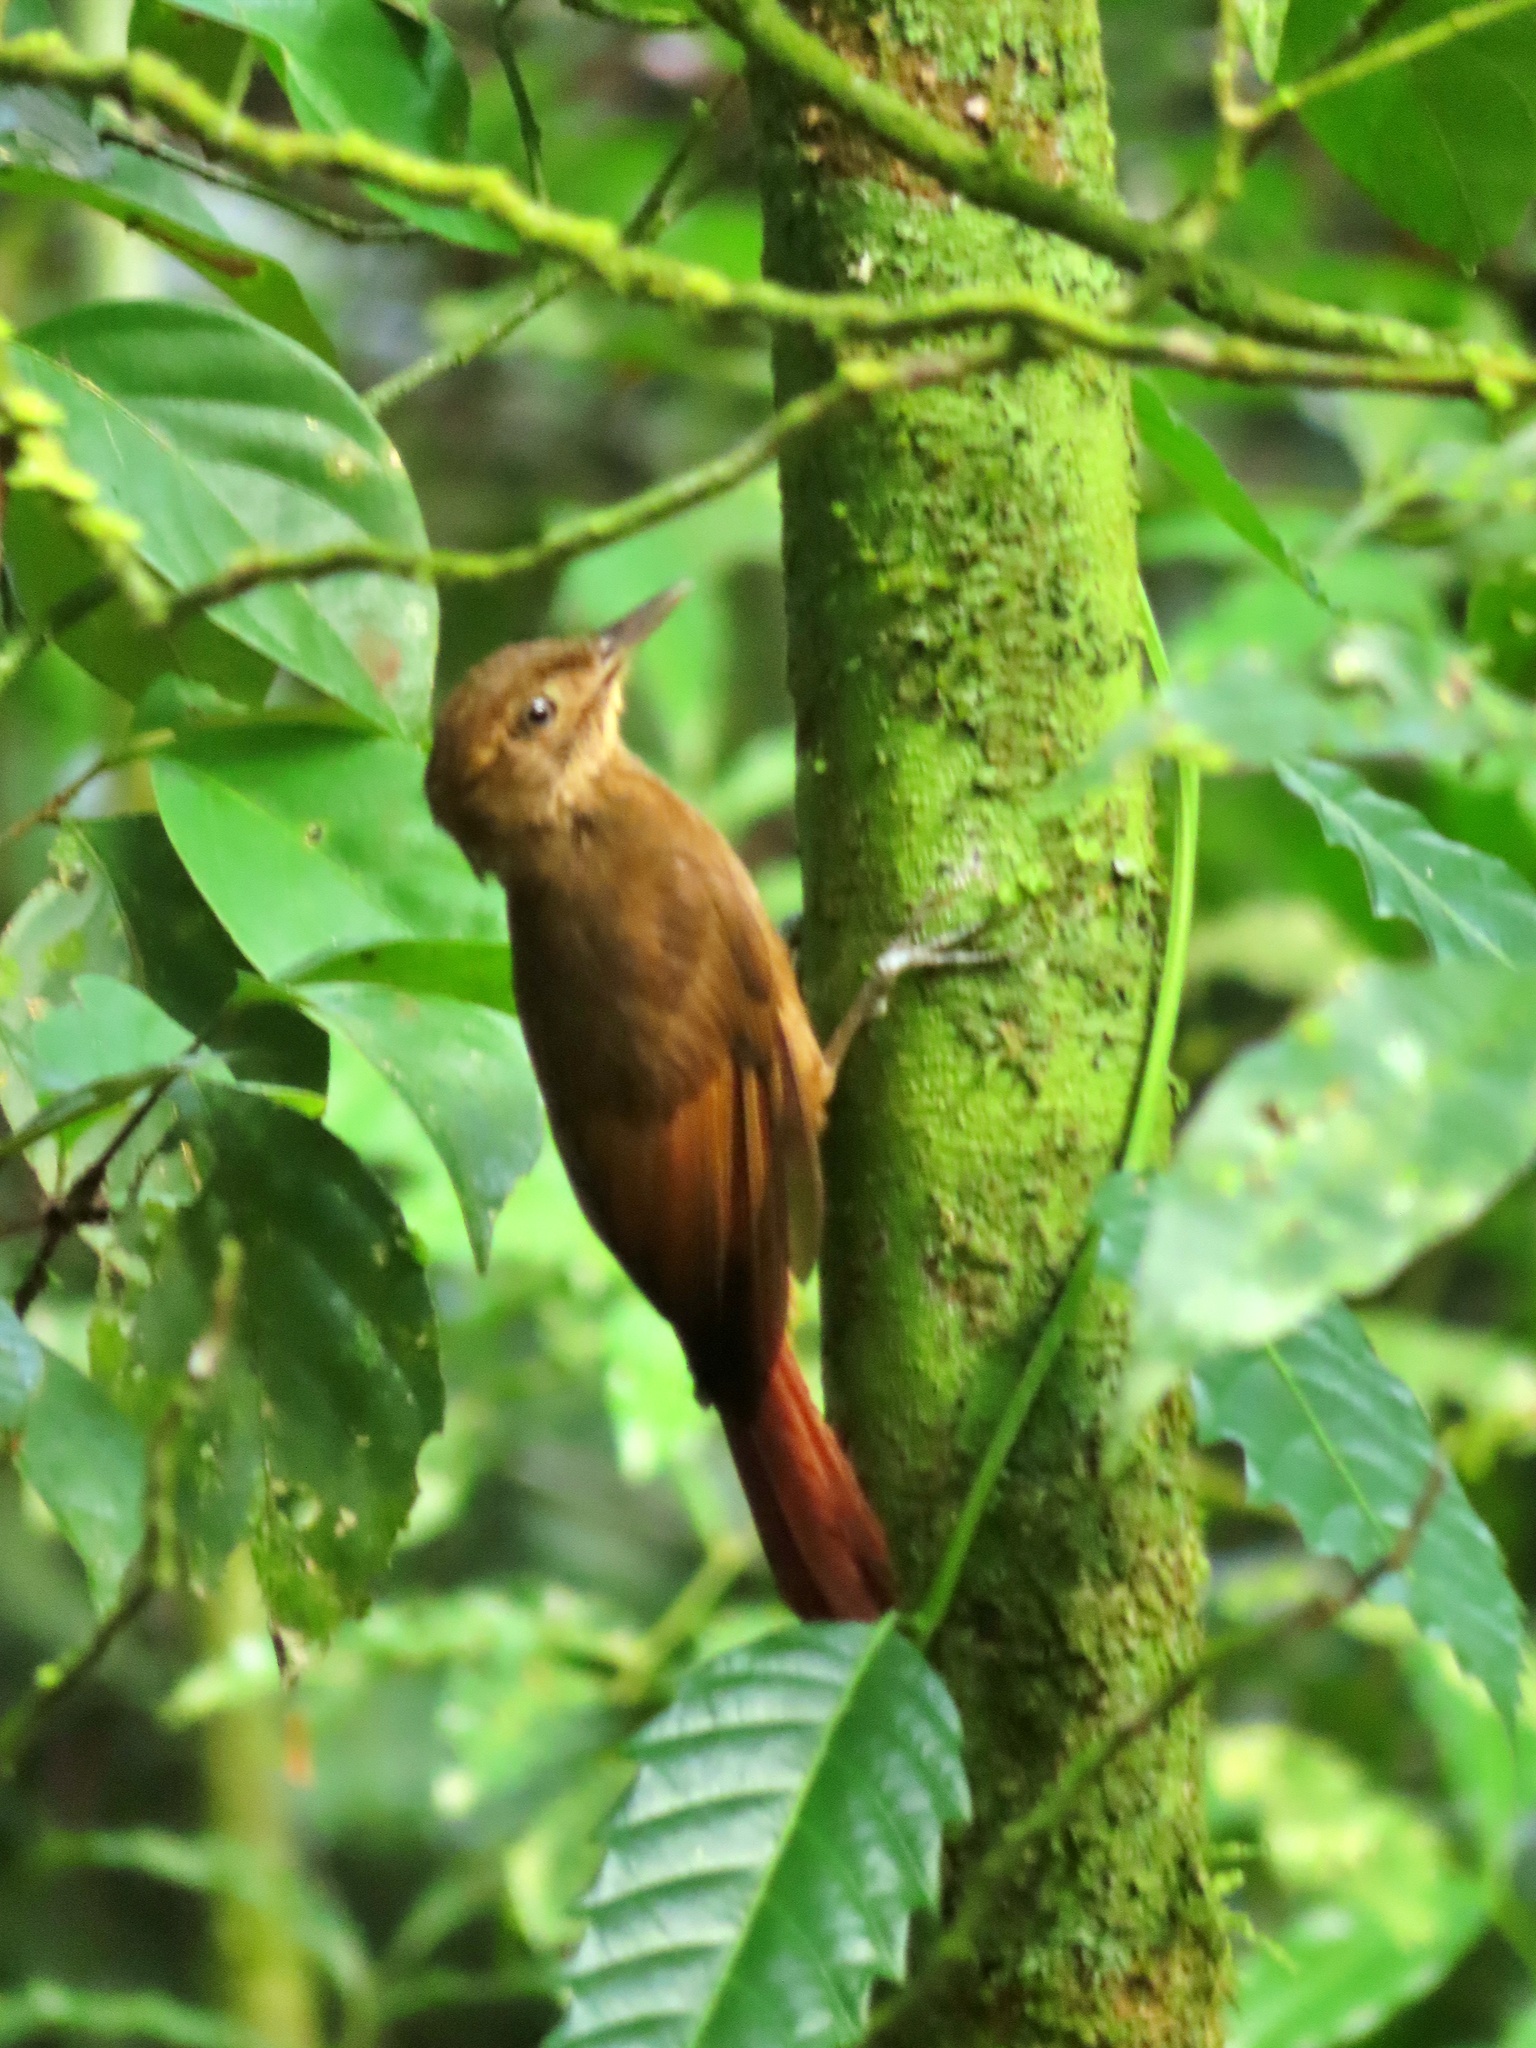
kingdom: Animalia
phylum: Chordata
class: Aves
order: Passeriformes
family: Furnariidae
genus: Dendrocincla
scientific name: Dendrocincla anabatina
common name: Tawny-winged woodcreeper
